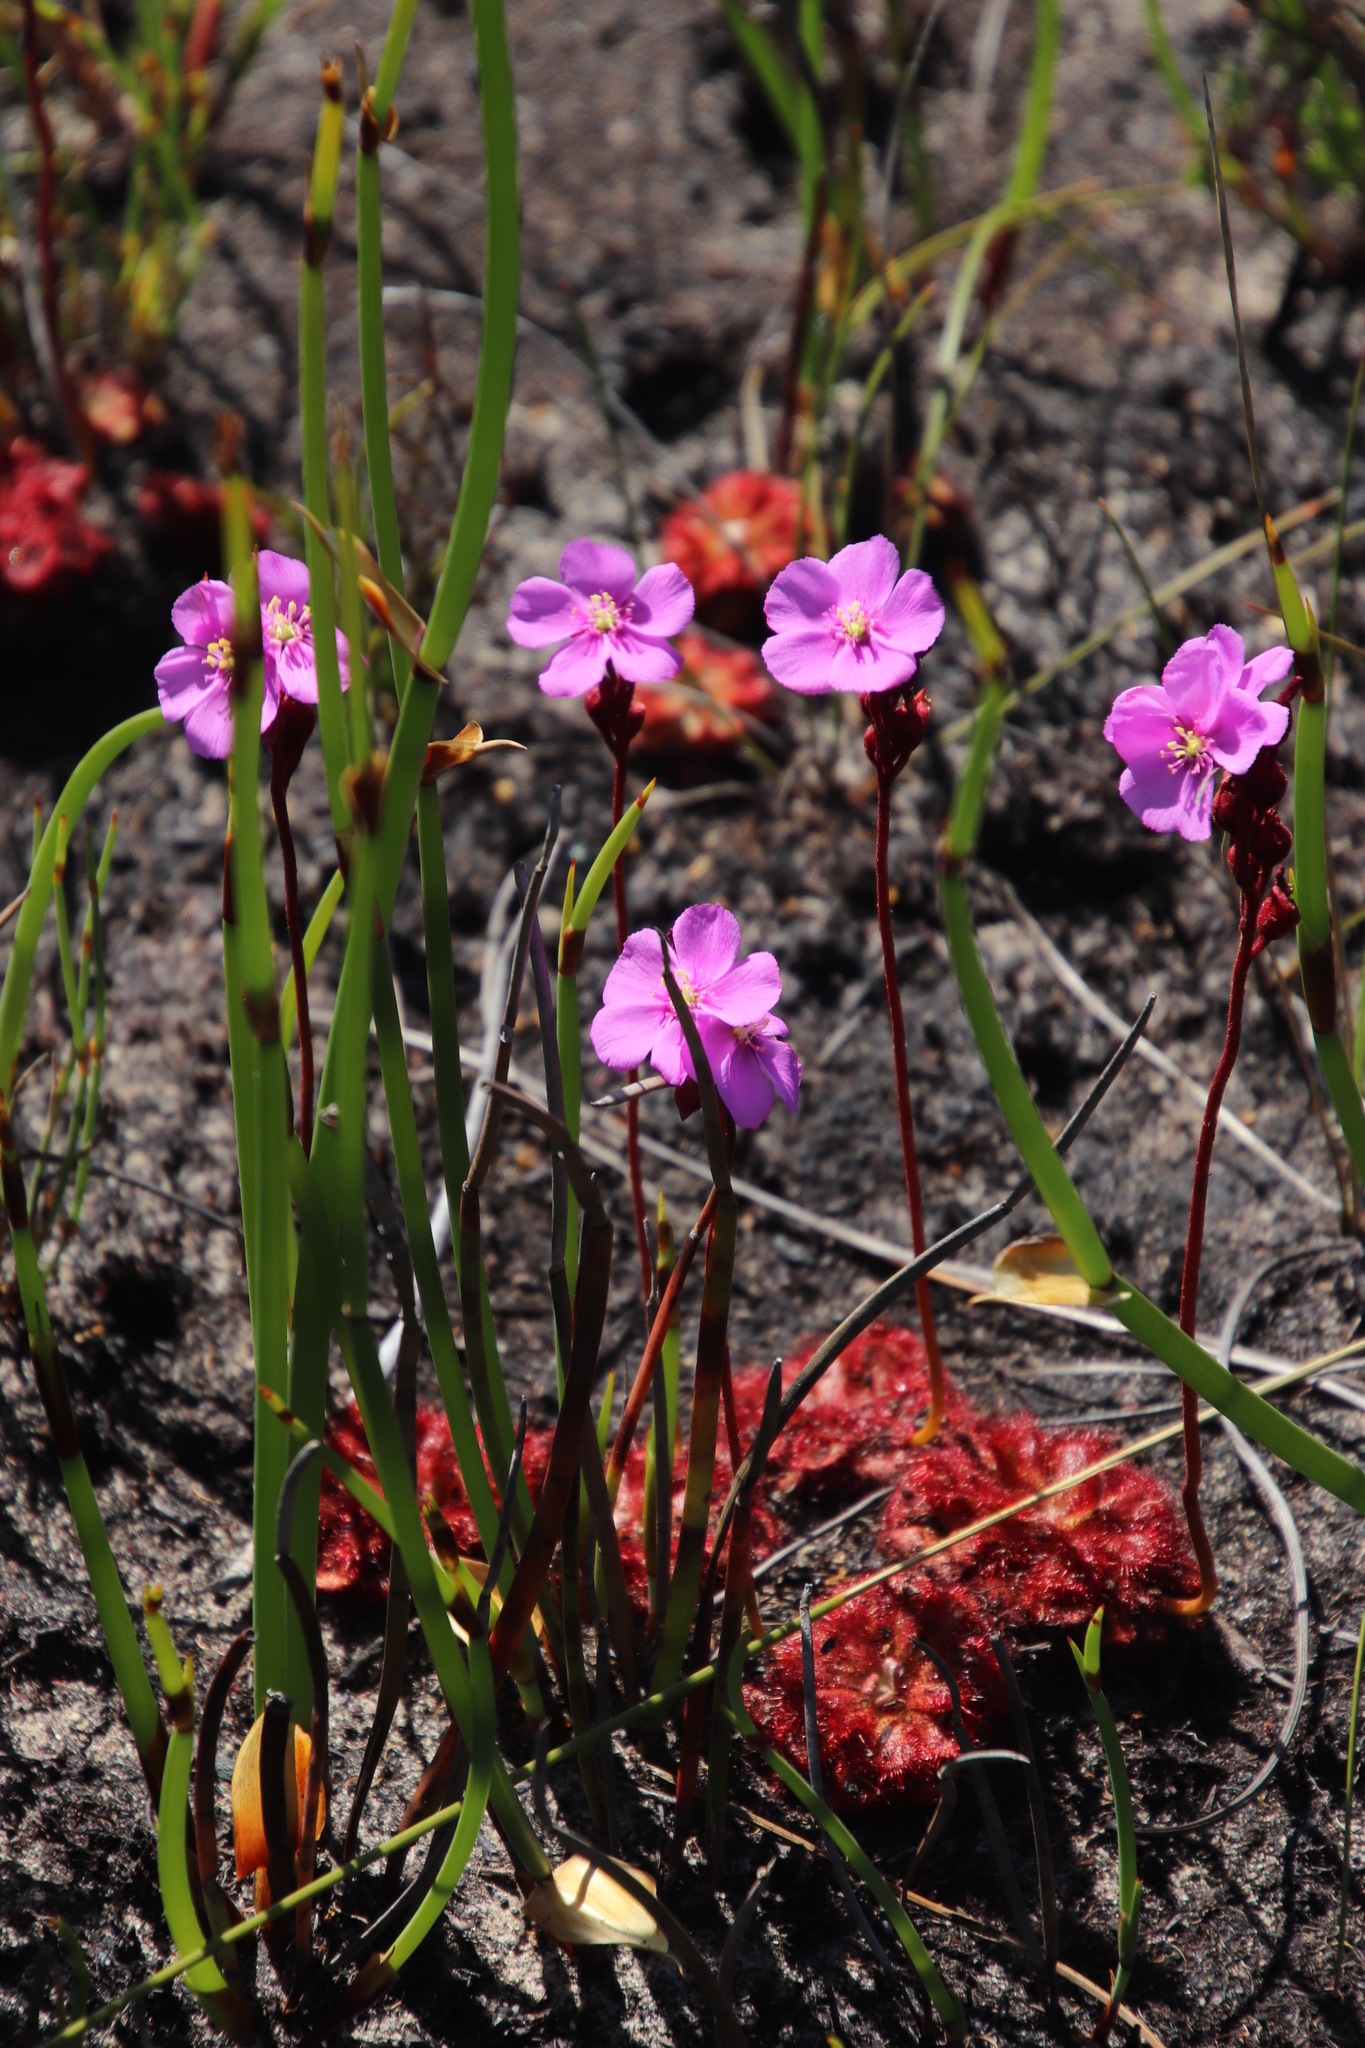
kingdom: Plantae
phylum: Tracheophyta
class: Magnoliopsida
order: Caryophyllales
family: Droseraceae
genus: Drosera
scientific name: Drosera aliciae
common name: Alice sundew
